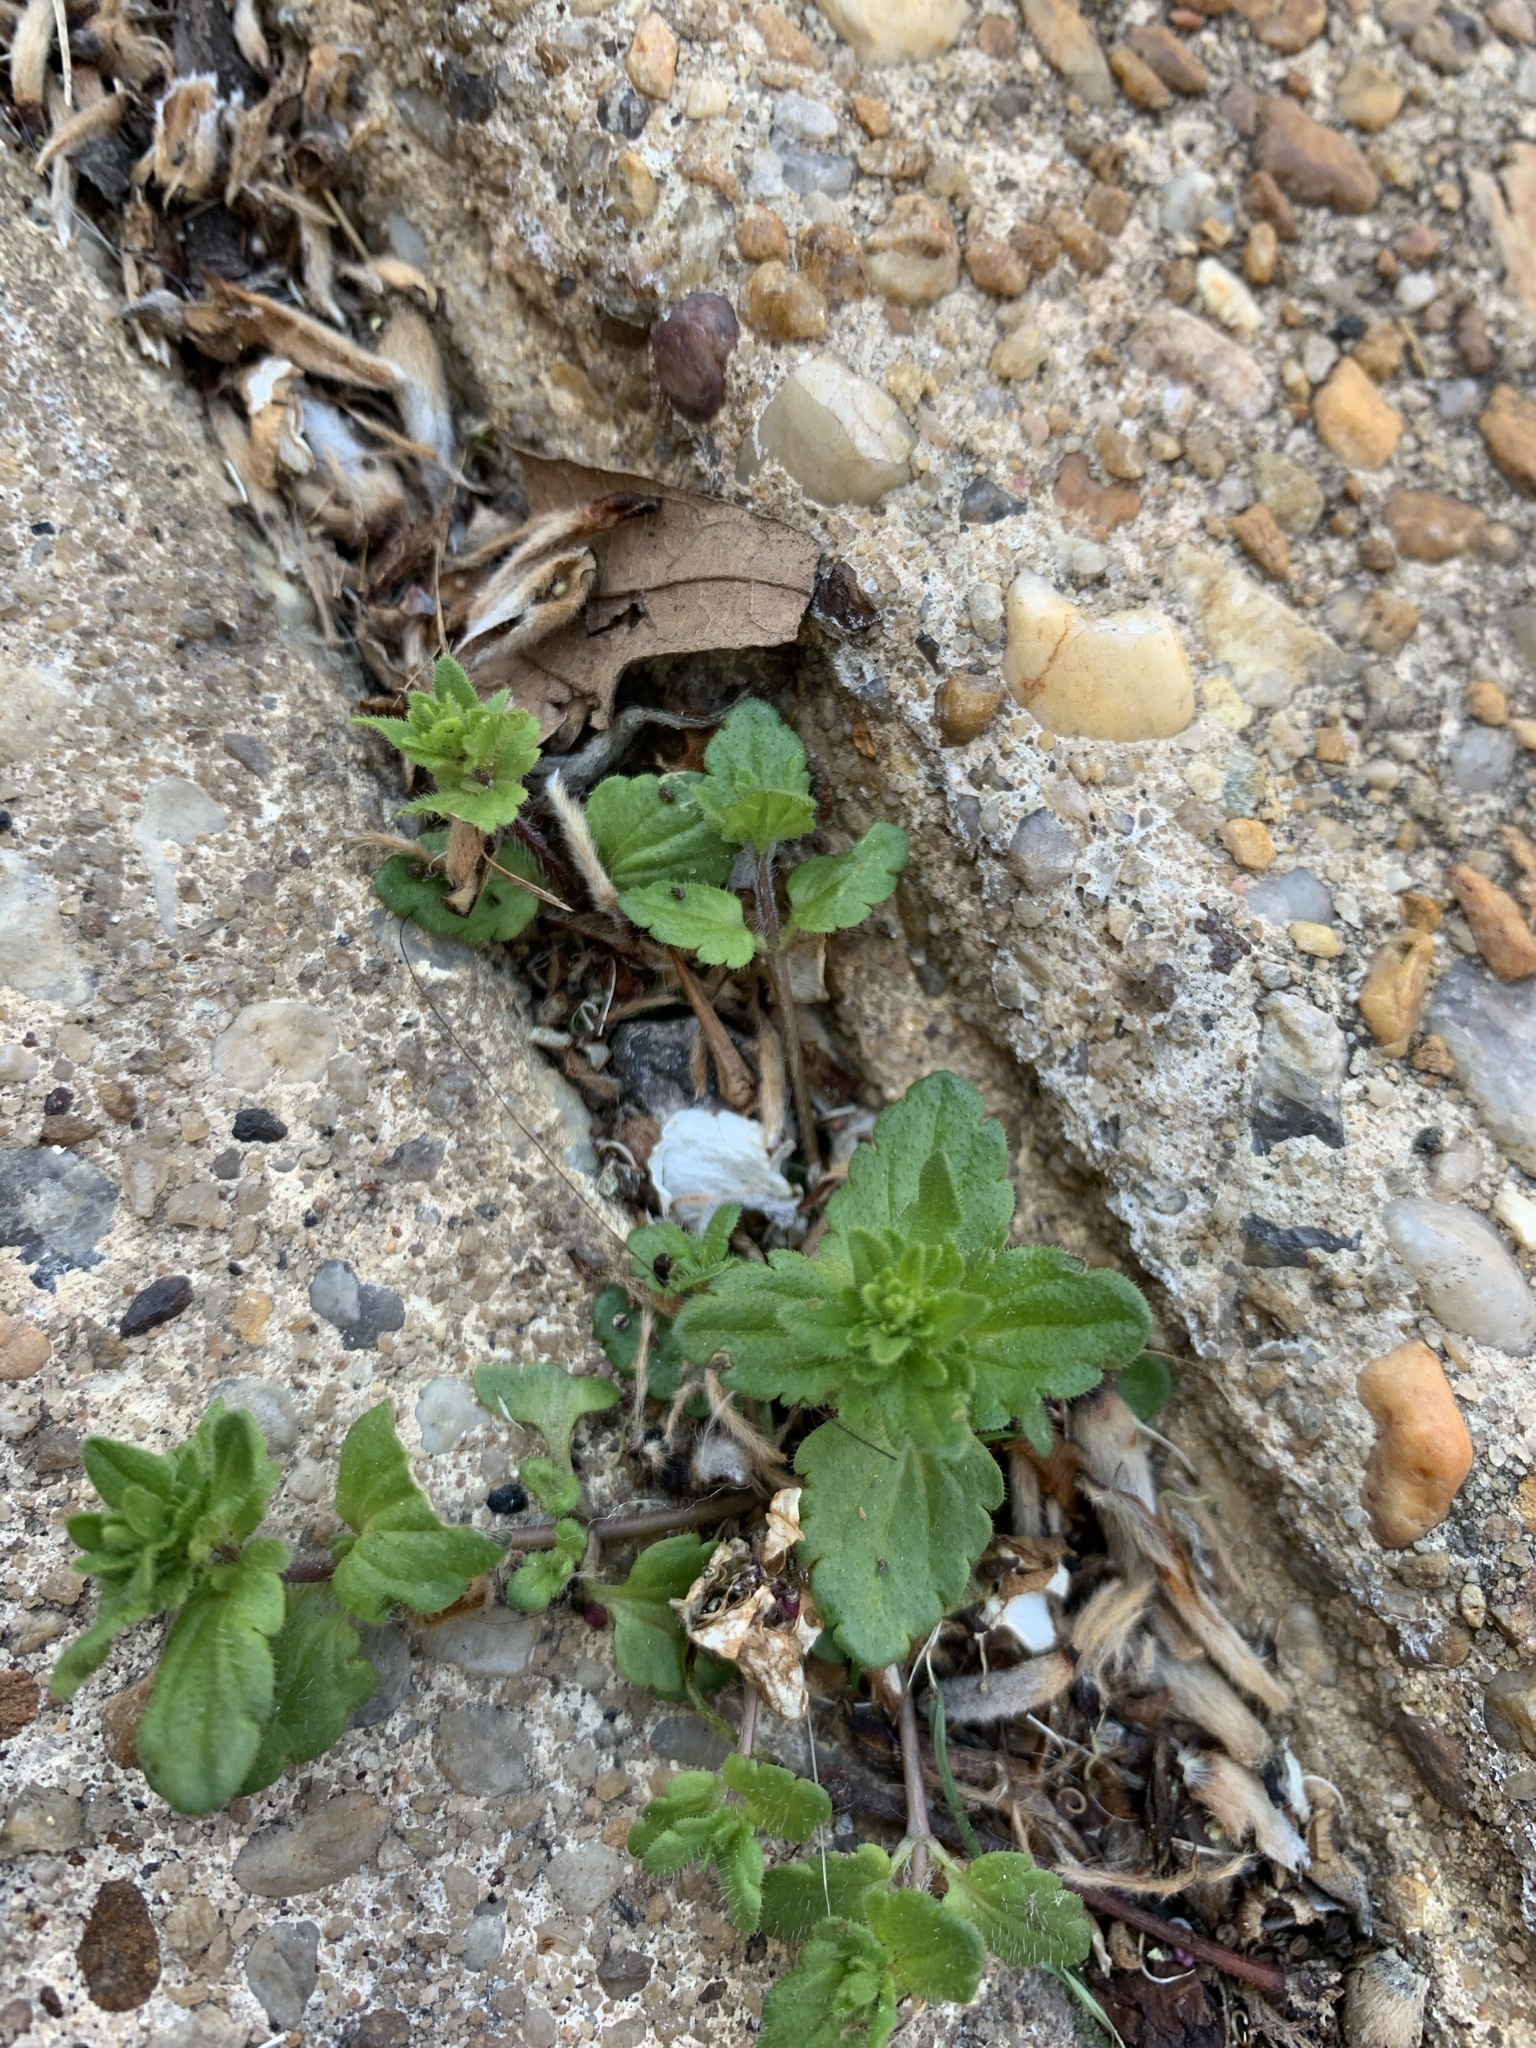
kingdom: Plantae
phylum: Tracheophyta
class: Magnoliopsida
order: Lamiales
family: Plantaginaceae
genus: Veronica
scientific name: Veronica persica
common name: Common field-speedwell
